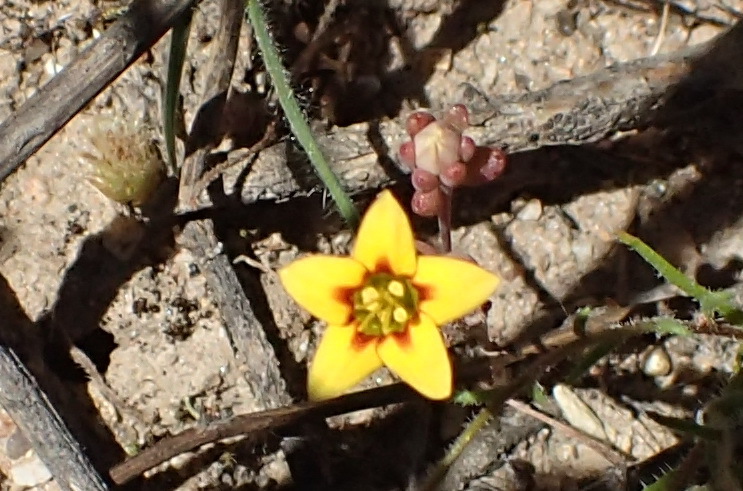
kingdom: Plantae
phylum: Tracheophyta
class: Magnoliopsida
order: Saxifragales
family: Crassulaceae
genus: Crassula
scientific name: Crassula dichotoma
